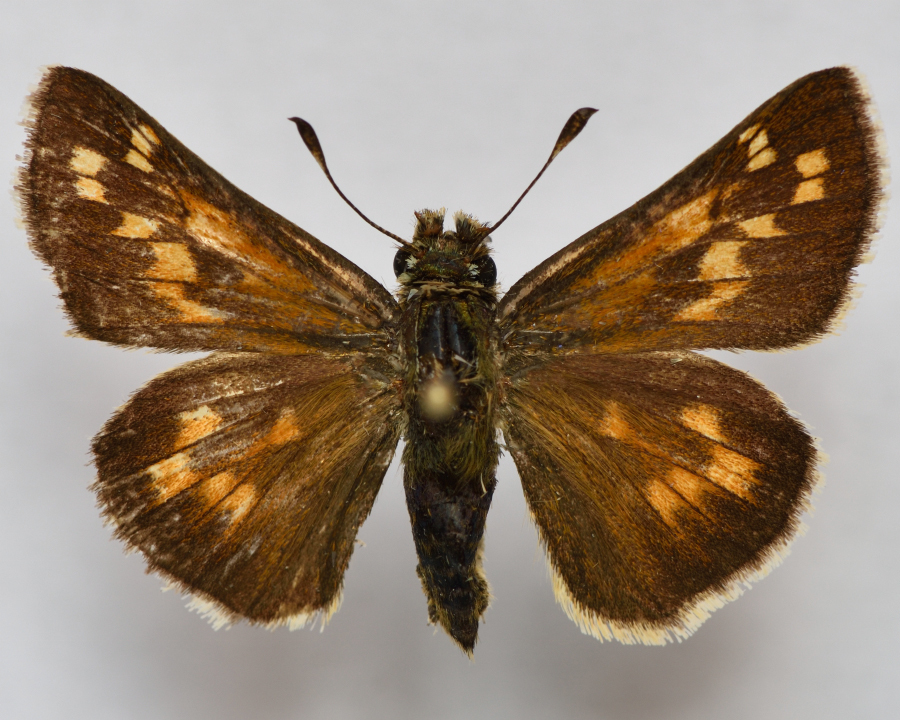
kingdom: Animalia
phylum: Arthropoda
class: Insecta
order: Lepidoptera
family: Hesperiidae
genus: Hesperia
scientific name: Hesperia comma
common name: Common branded skipper
